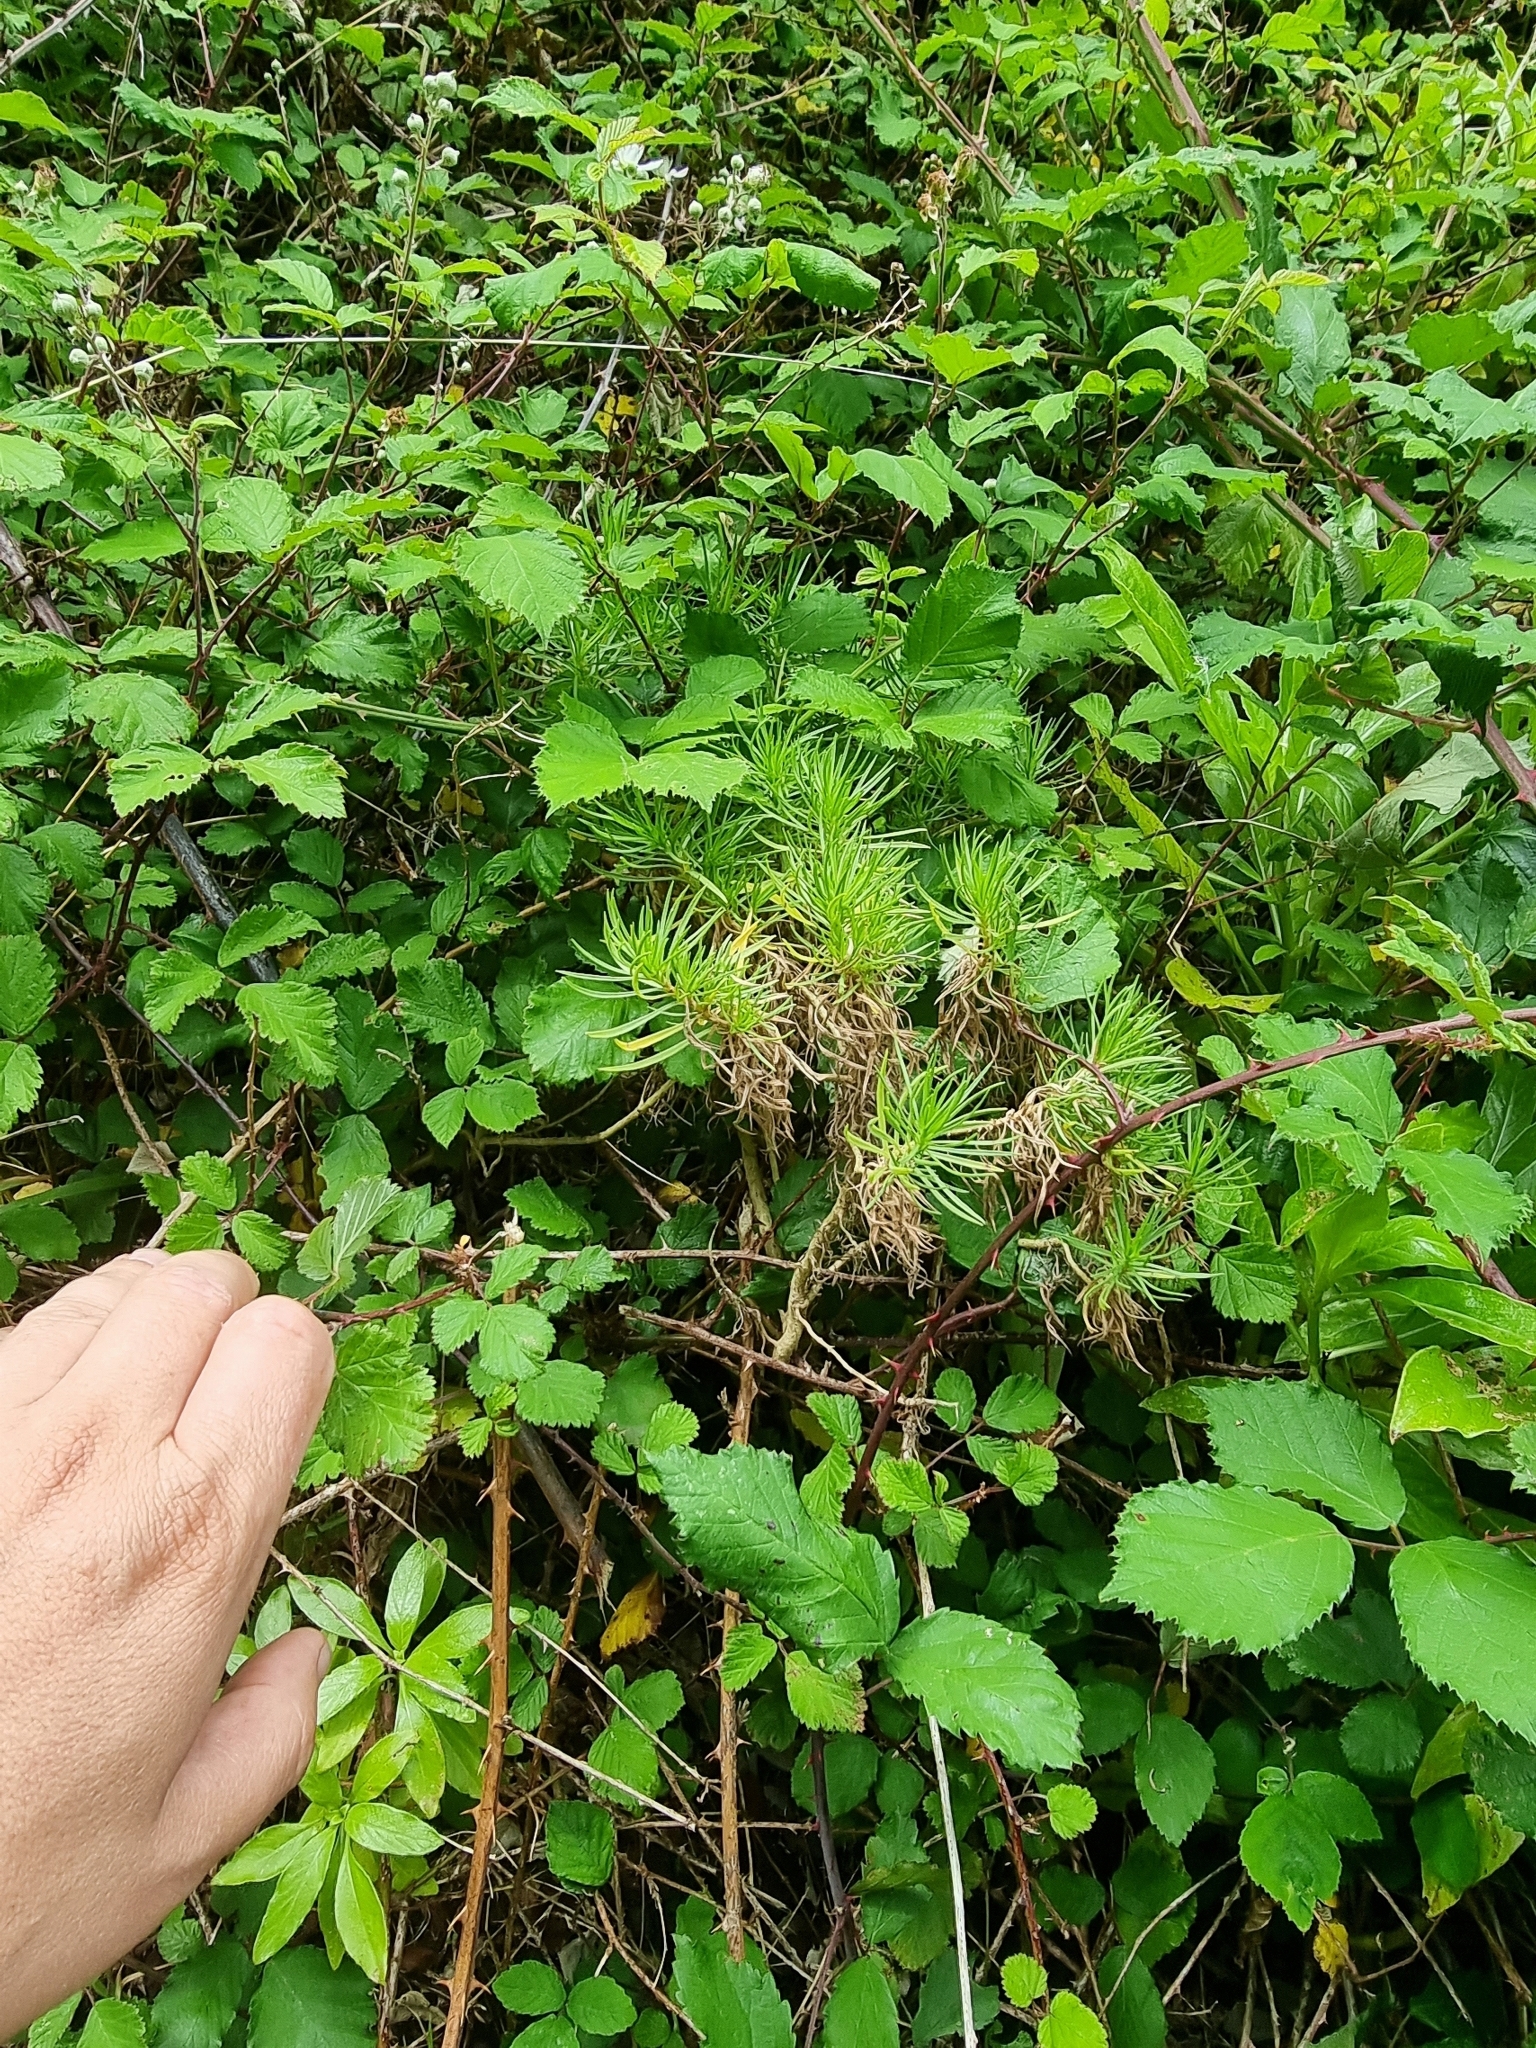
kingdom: Plantae
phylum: Tracheophyta
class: Magnoliopsida
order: Lamiales
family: Plantaginaceae
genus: Plantago
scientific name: Plantago arborescens
